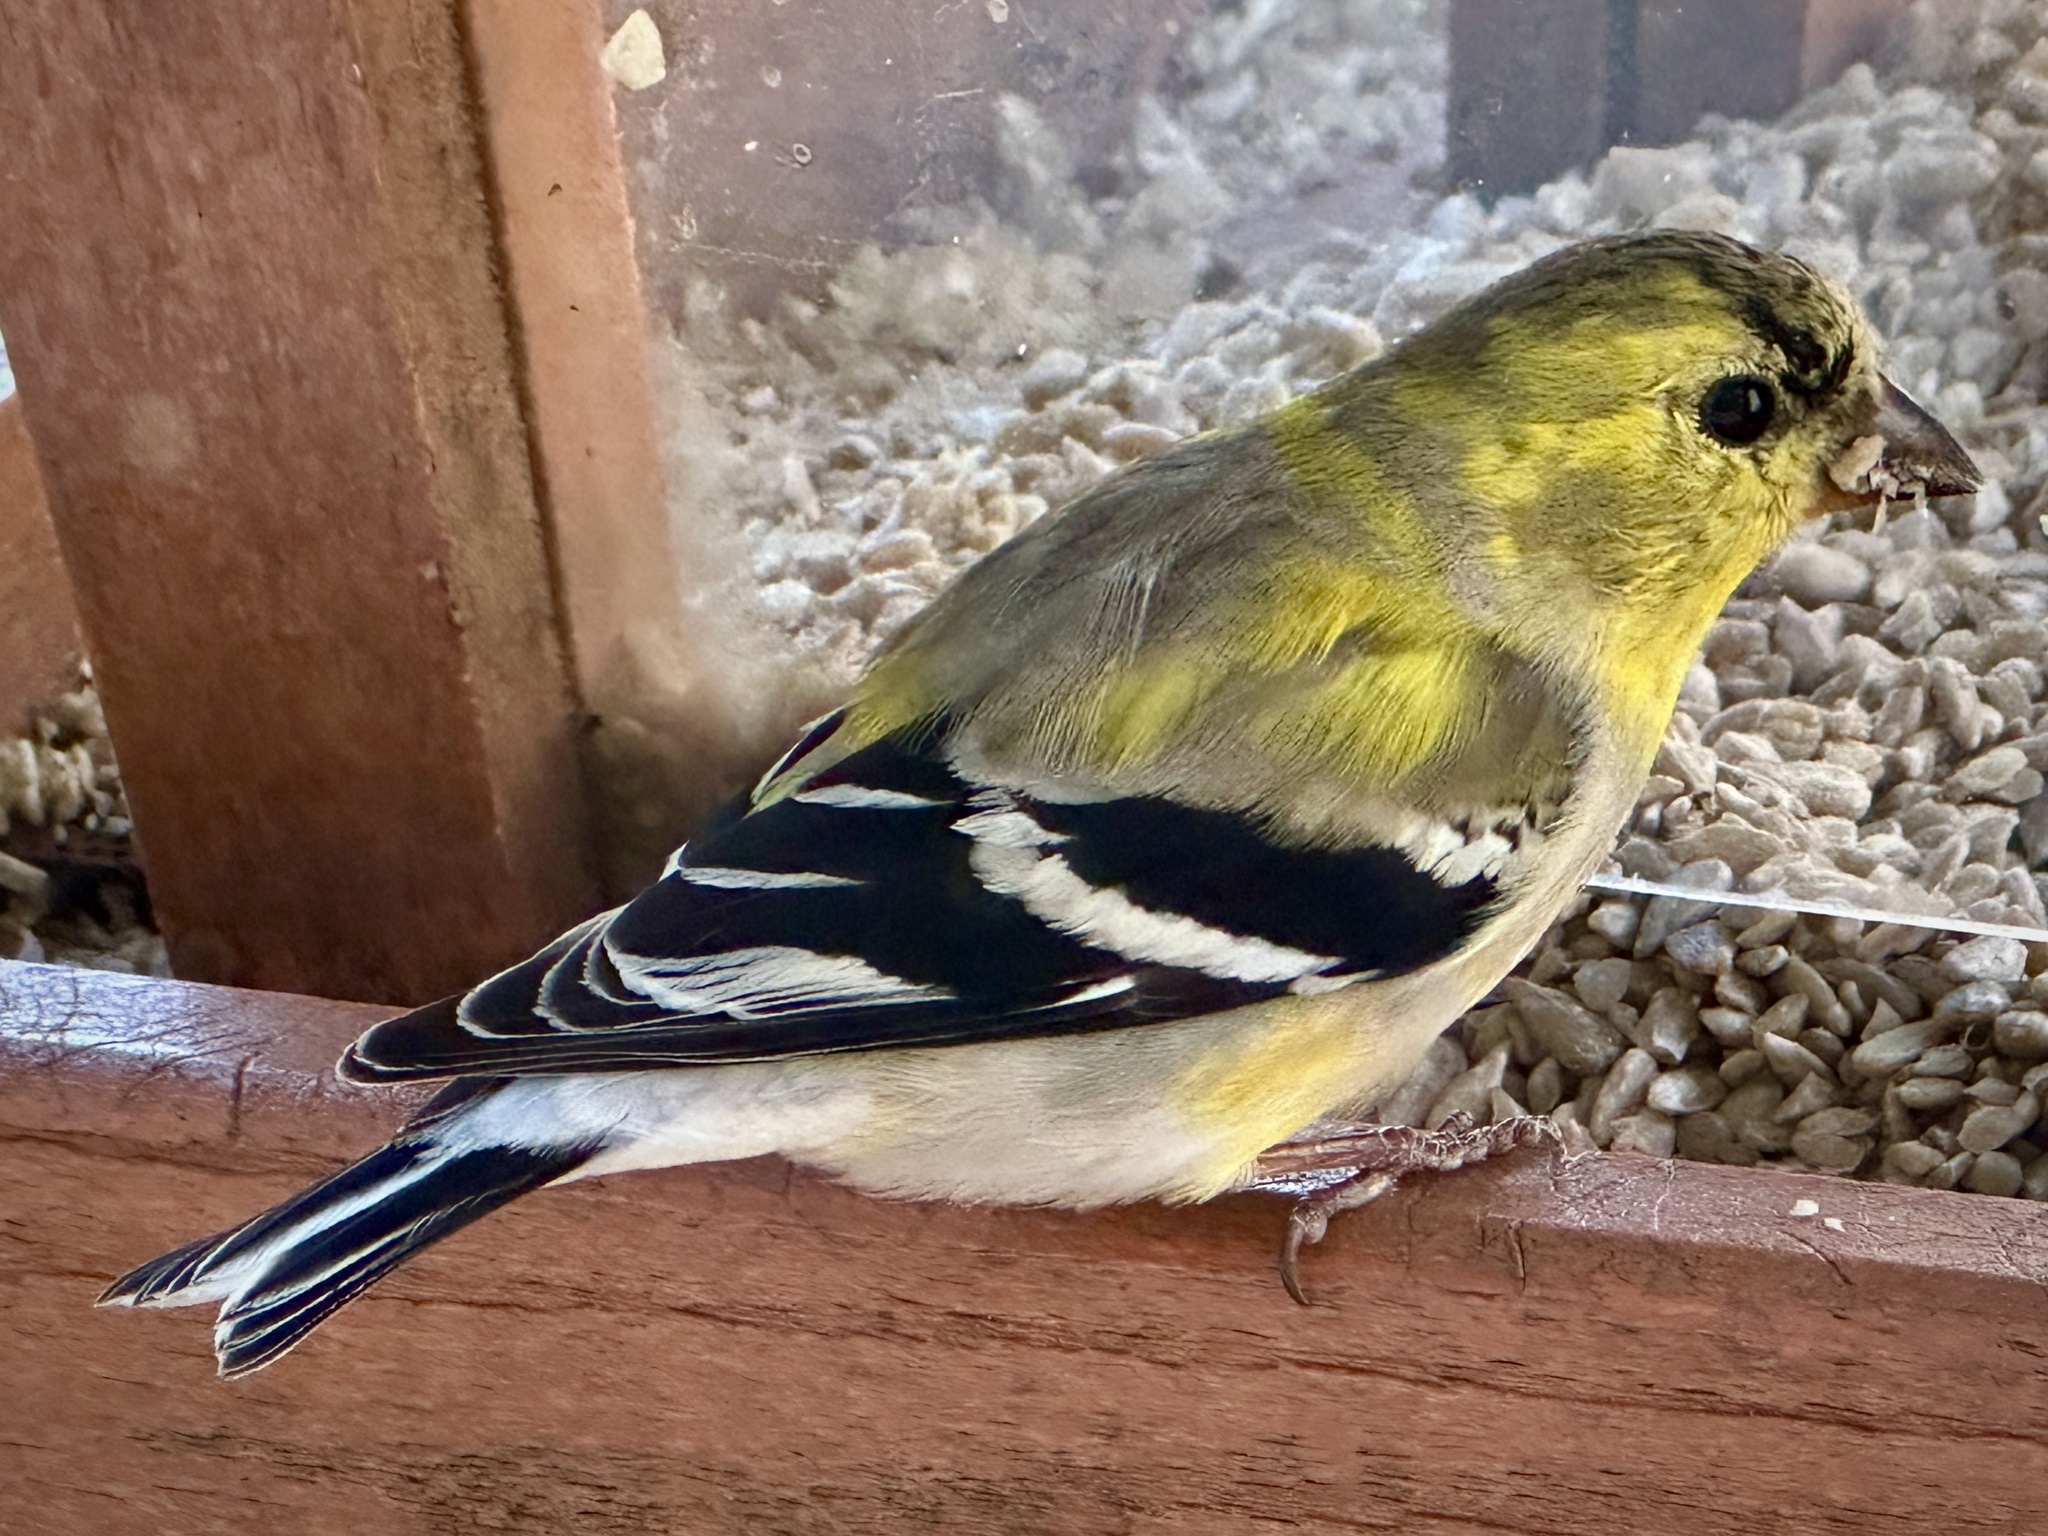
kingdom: Animalia
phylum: Chordata
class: Aves
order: Passeriformes
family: Fringillidae
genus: Spinus
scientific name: Spinus tristis
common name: American goldfinch
